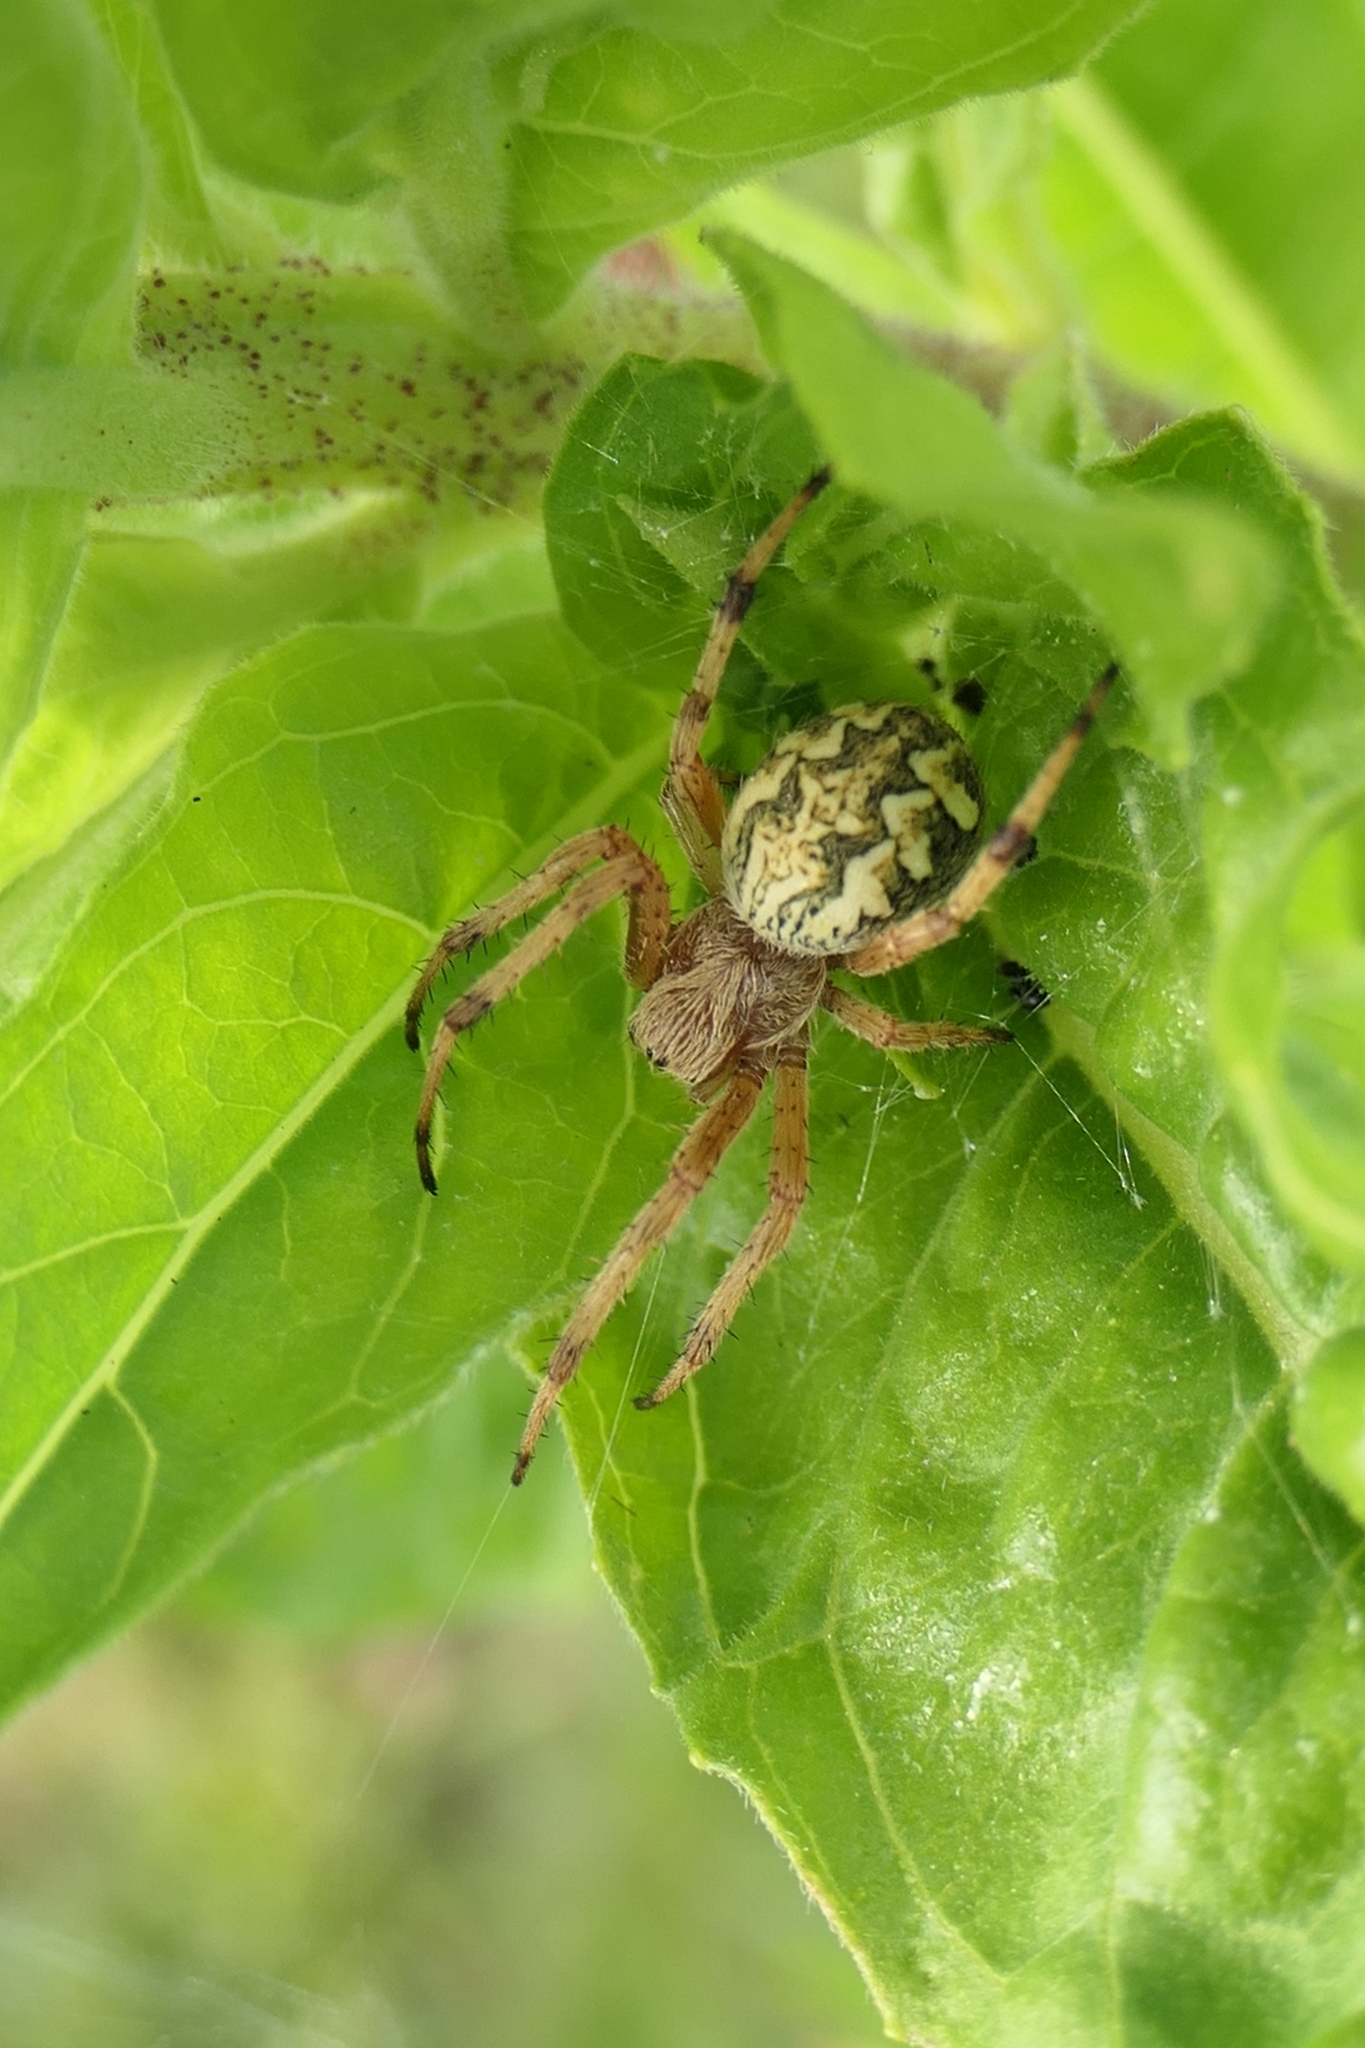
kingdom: Animalia
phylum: Arthropoda
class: Arachnida
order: Araneae
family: Araneidae
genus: Salsa
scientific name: Salsa fuliginata
